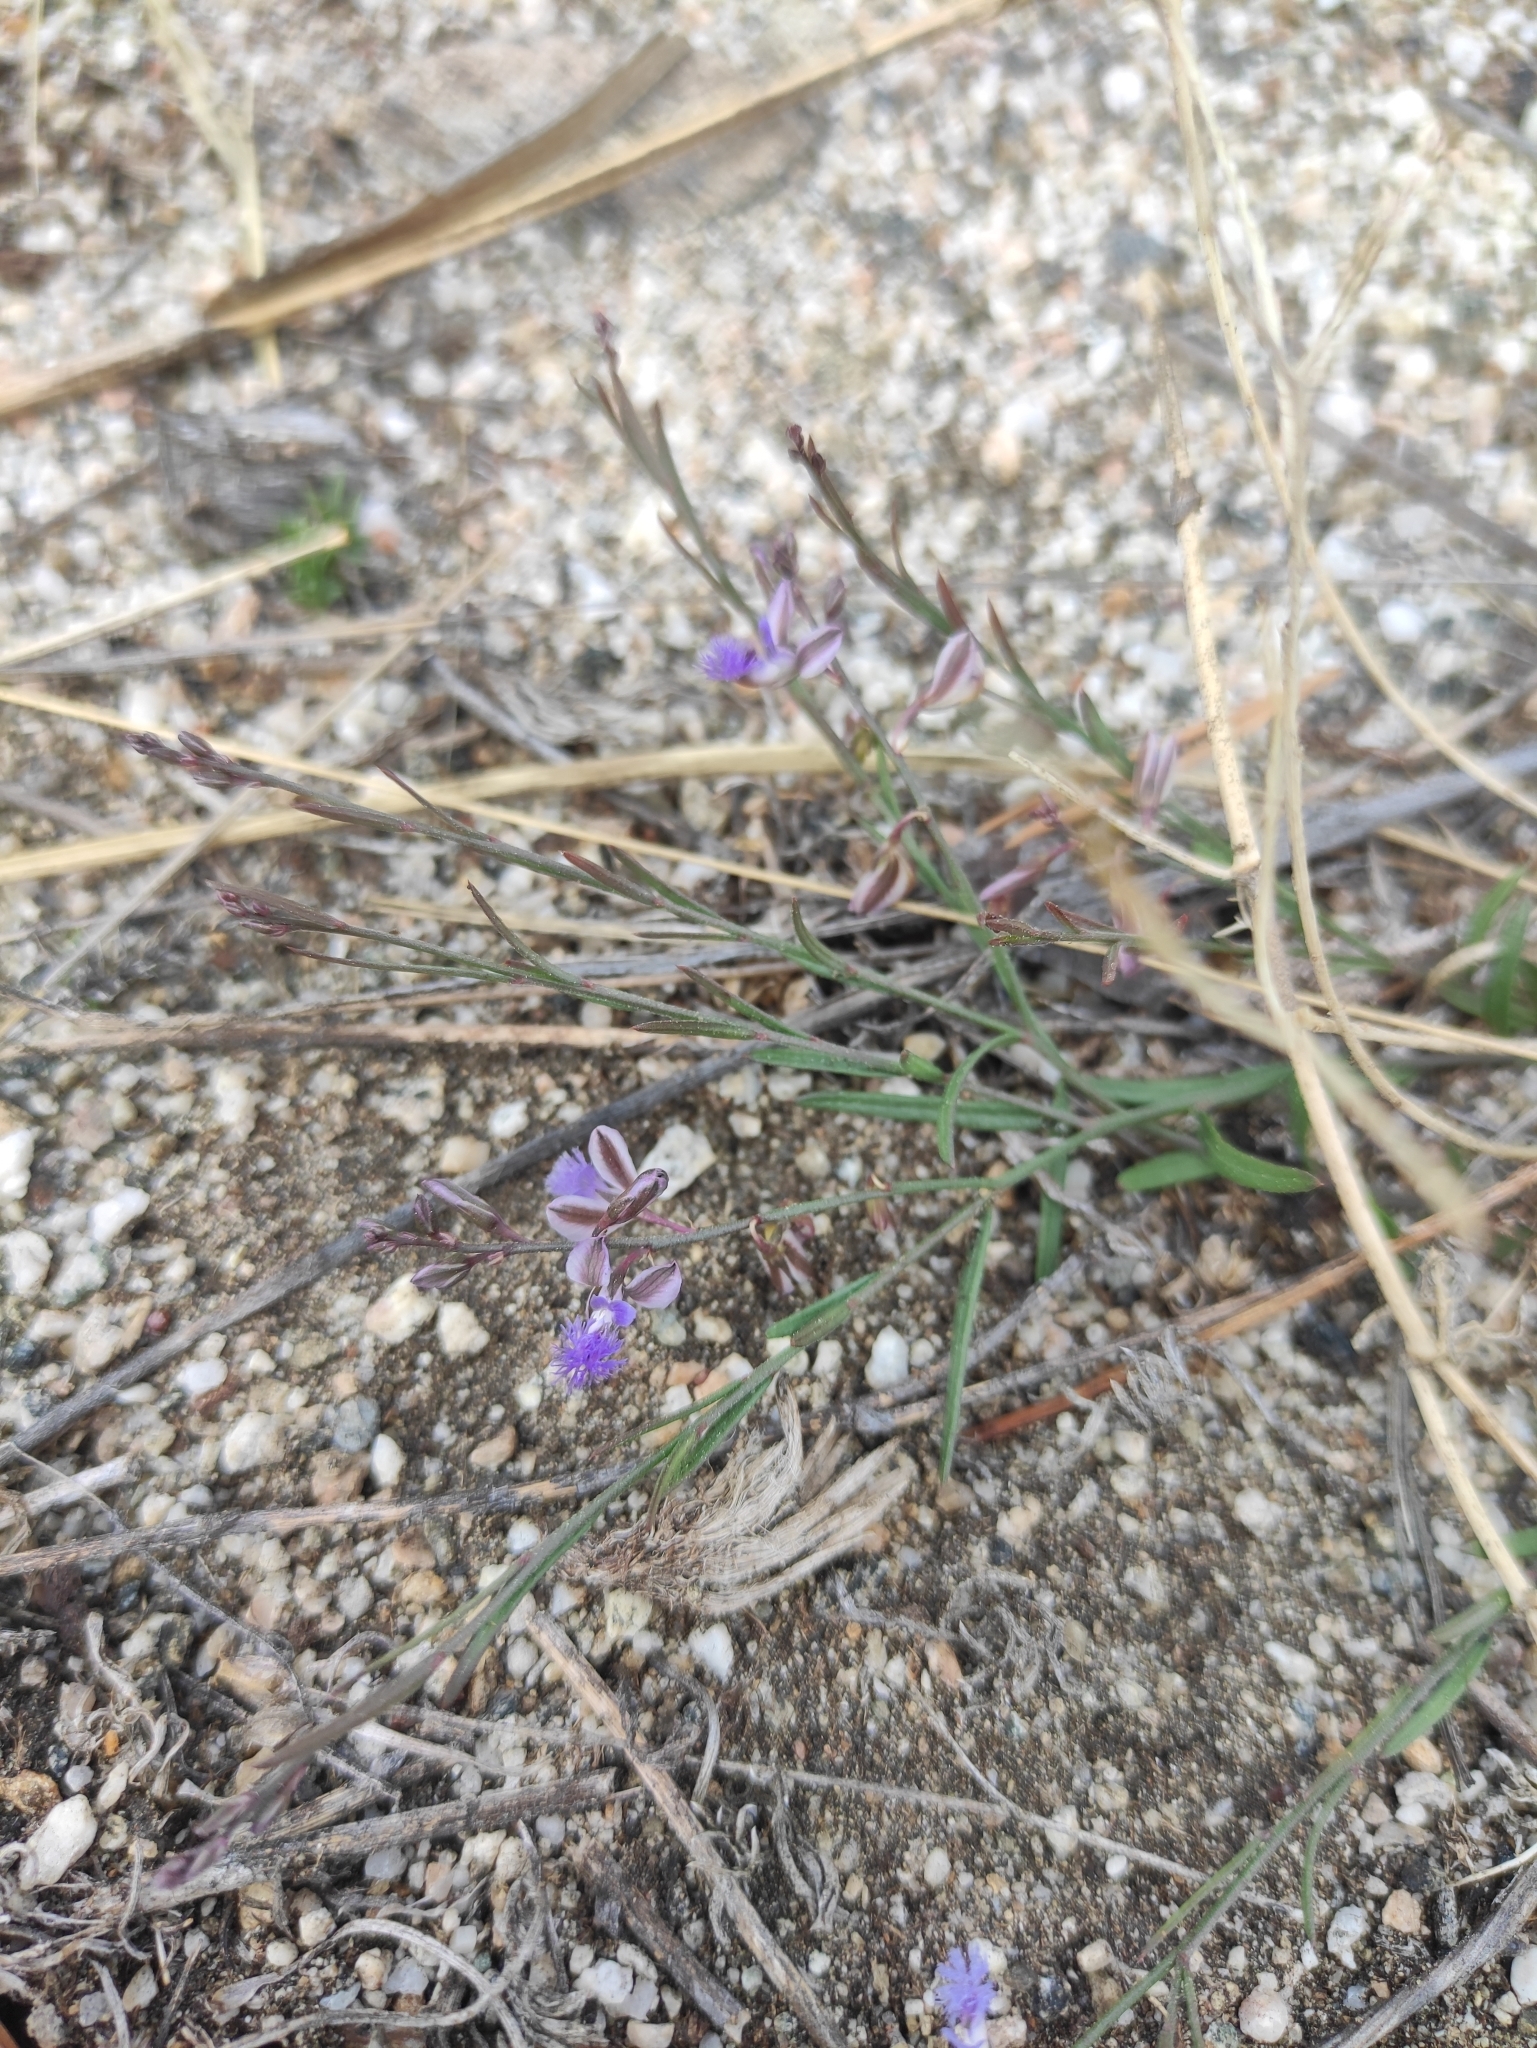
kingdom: Plantae
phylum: Tracheophyta
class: Magnoliopsida
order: Fabales
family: Polygalaceae
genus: Polygala
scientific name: Polygala tenuifolia
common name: Chinese senega-root
